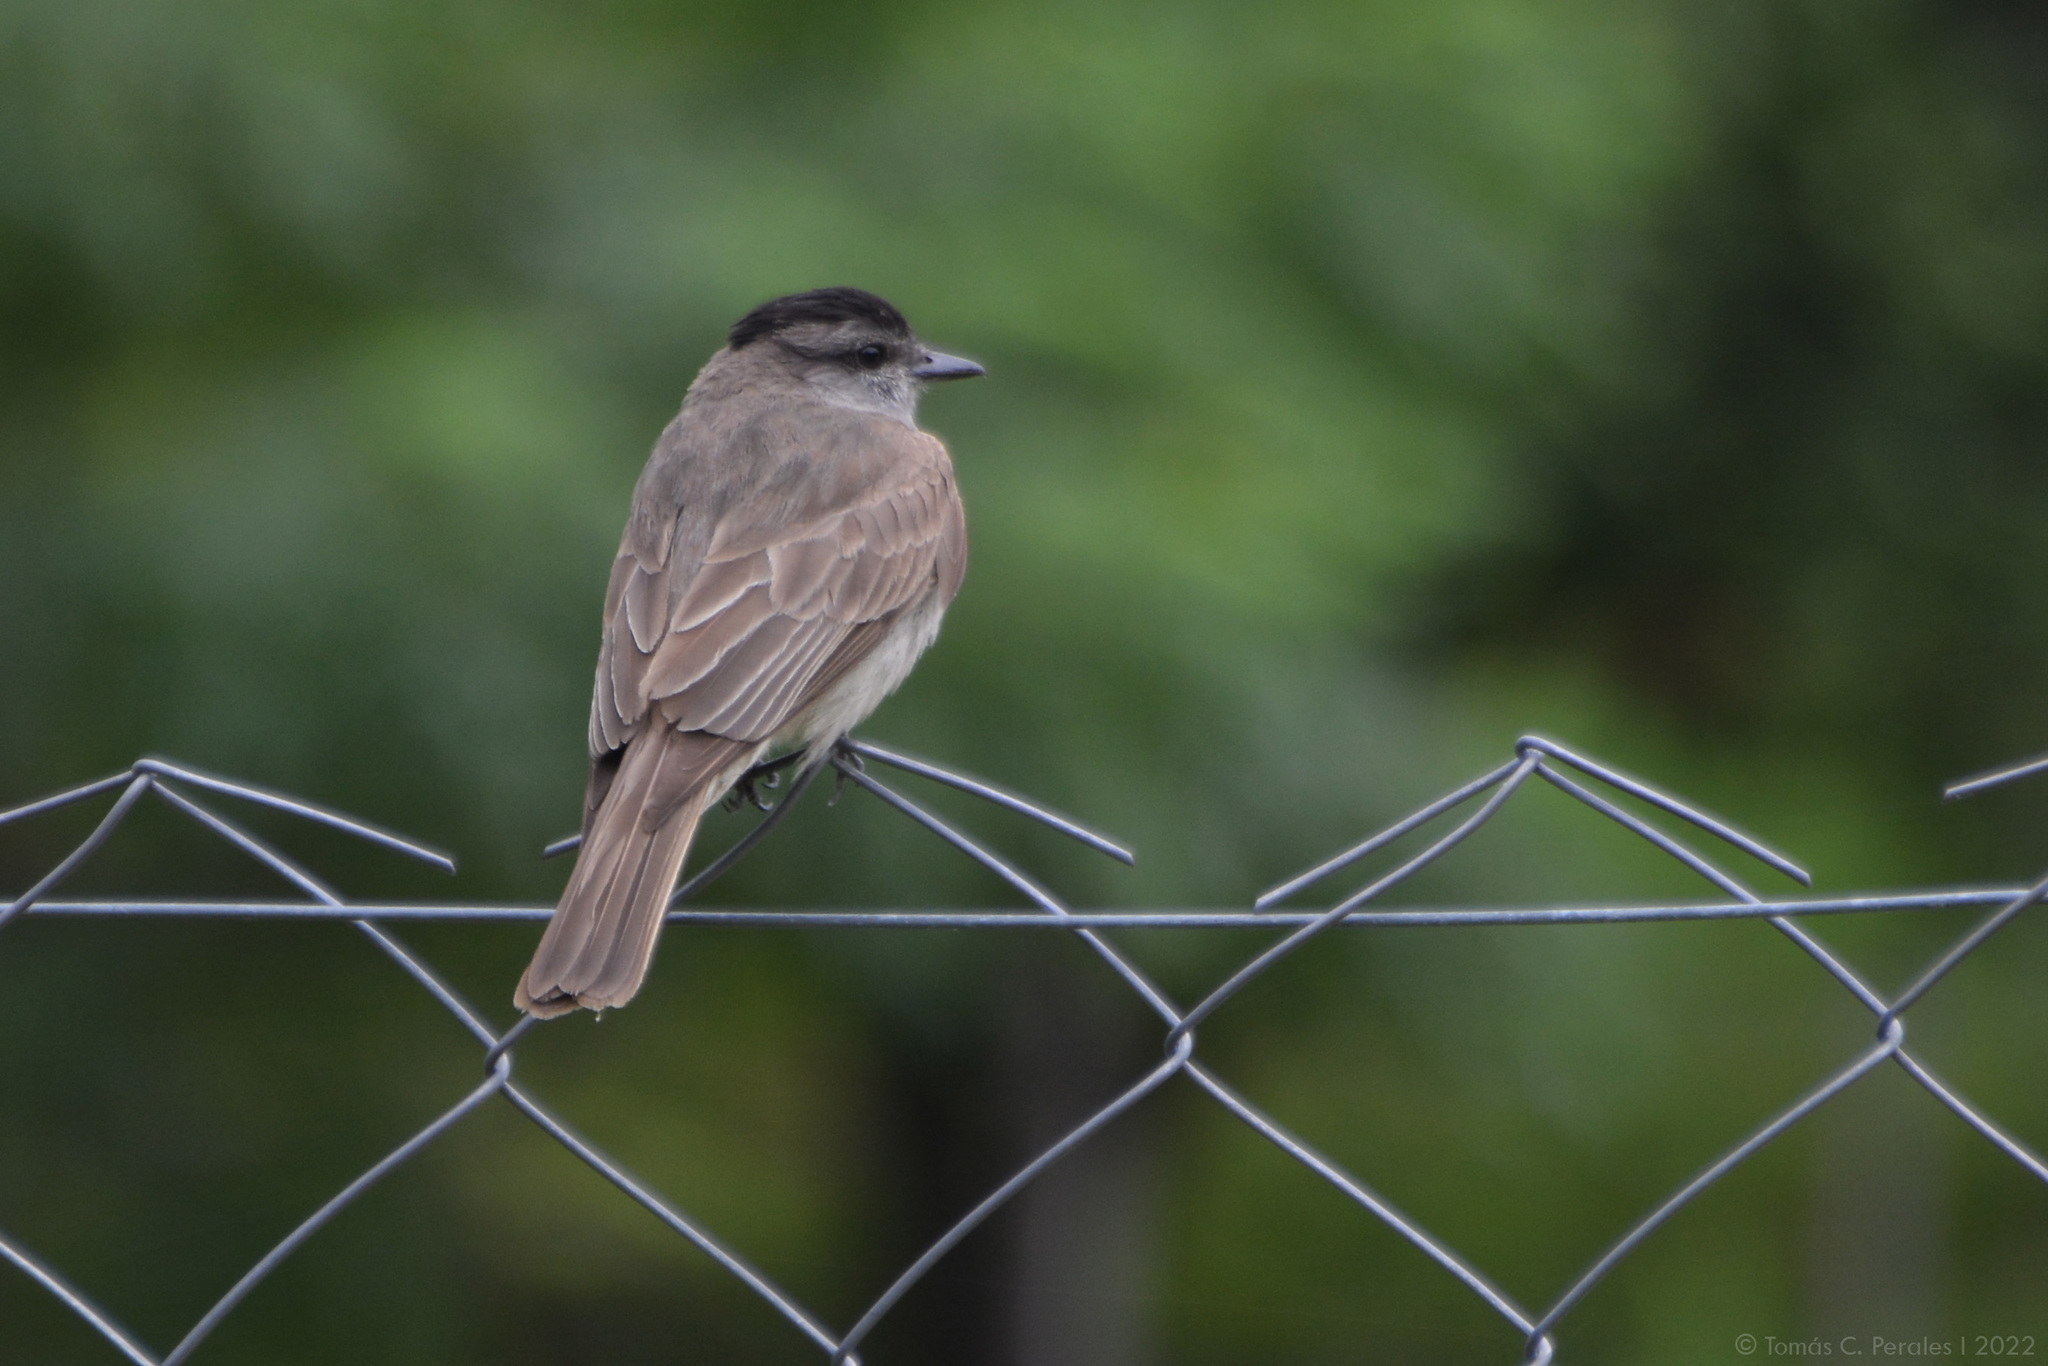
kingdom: Animalia
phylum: Chordata
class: Aves
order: Passeriformes
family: Tyrannidae
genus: Empidonomus
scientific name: Empidonomus aurantioatrocristatus
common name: Crowned slaty flycatcher
